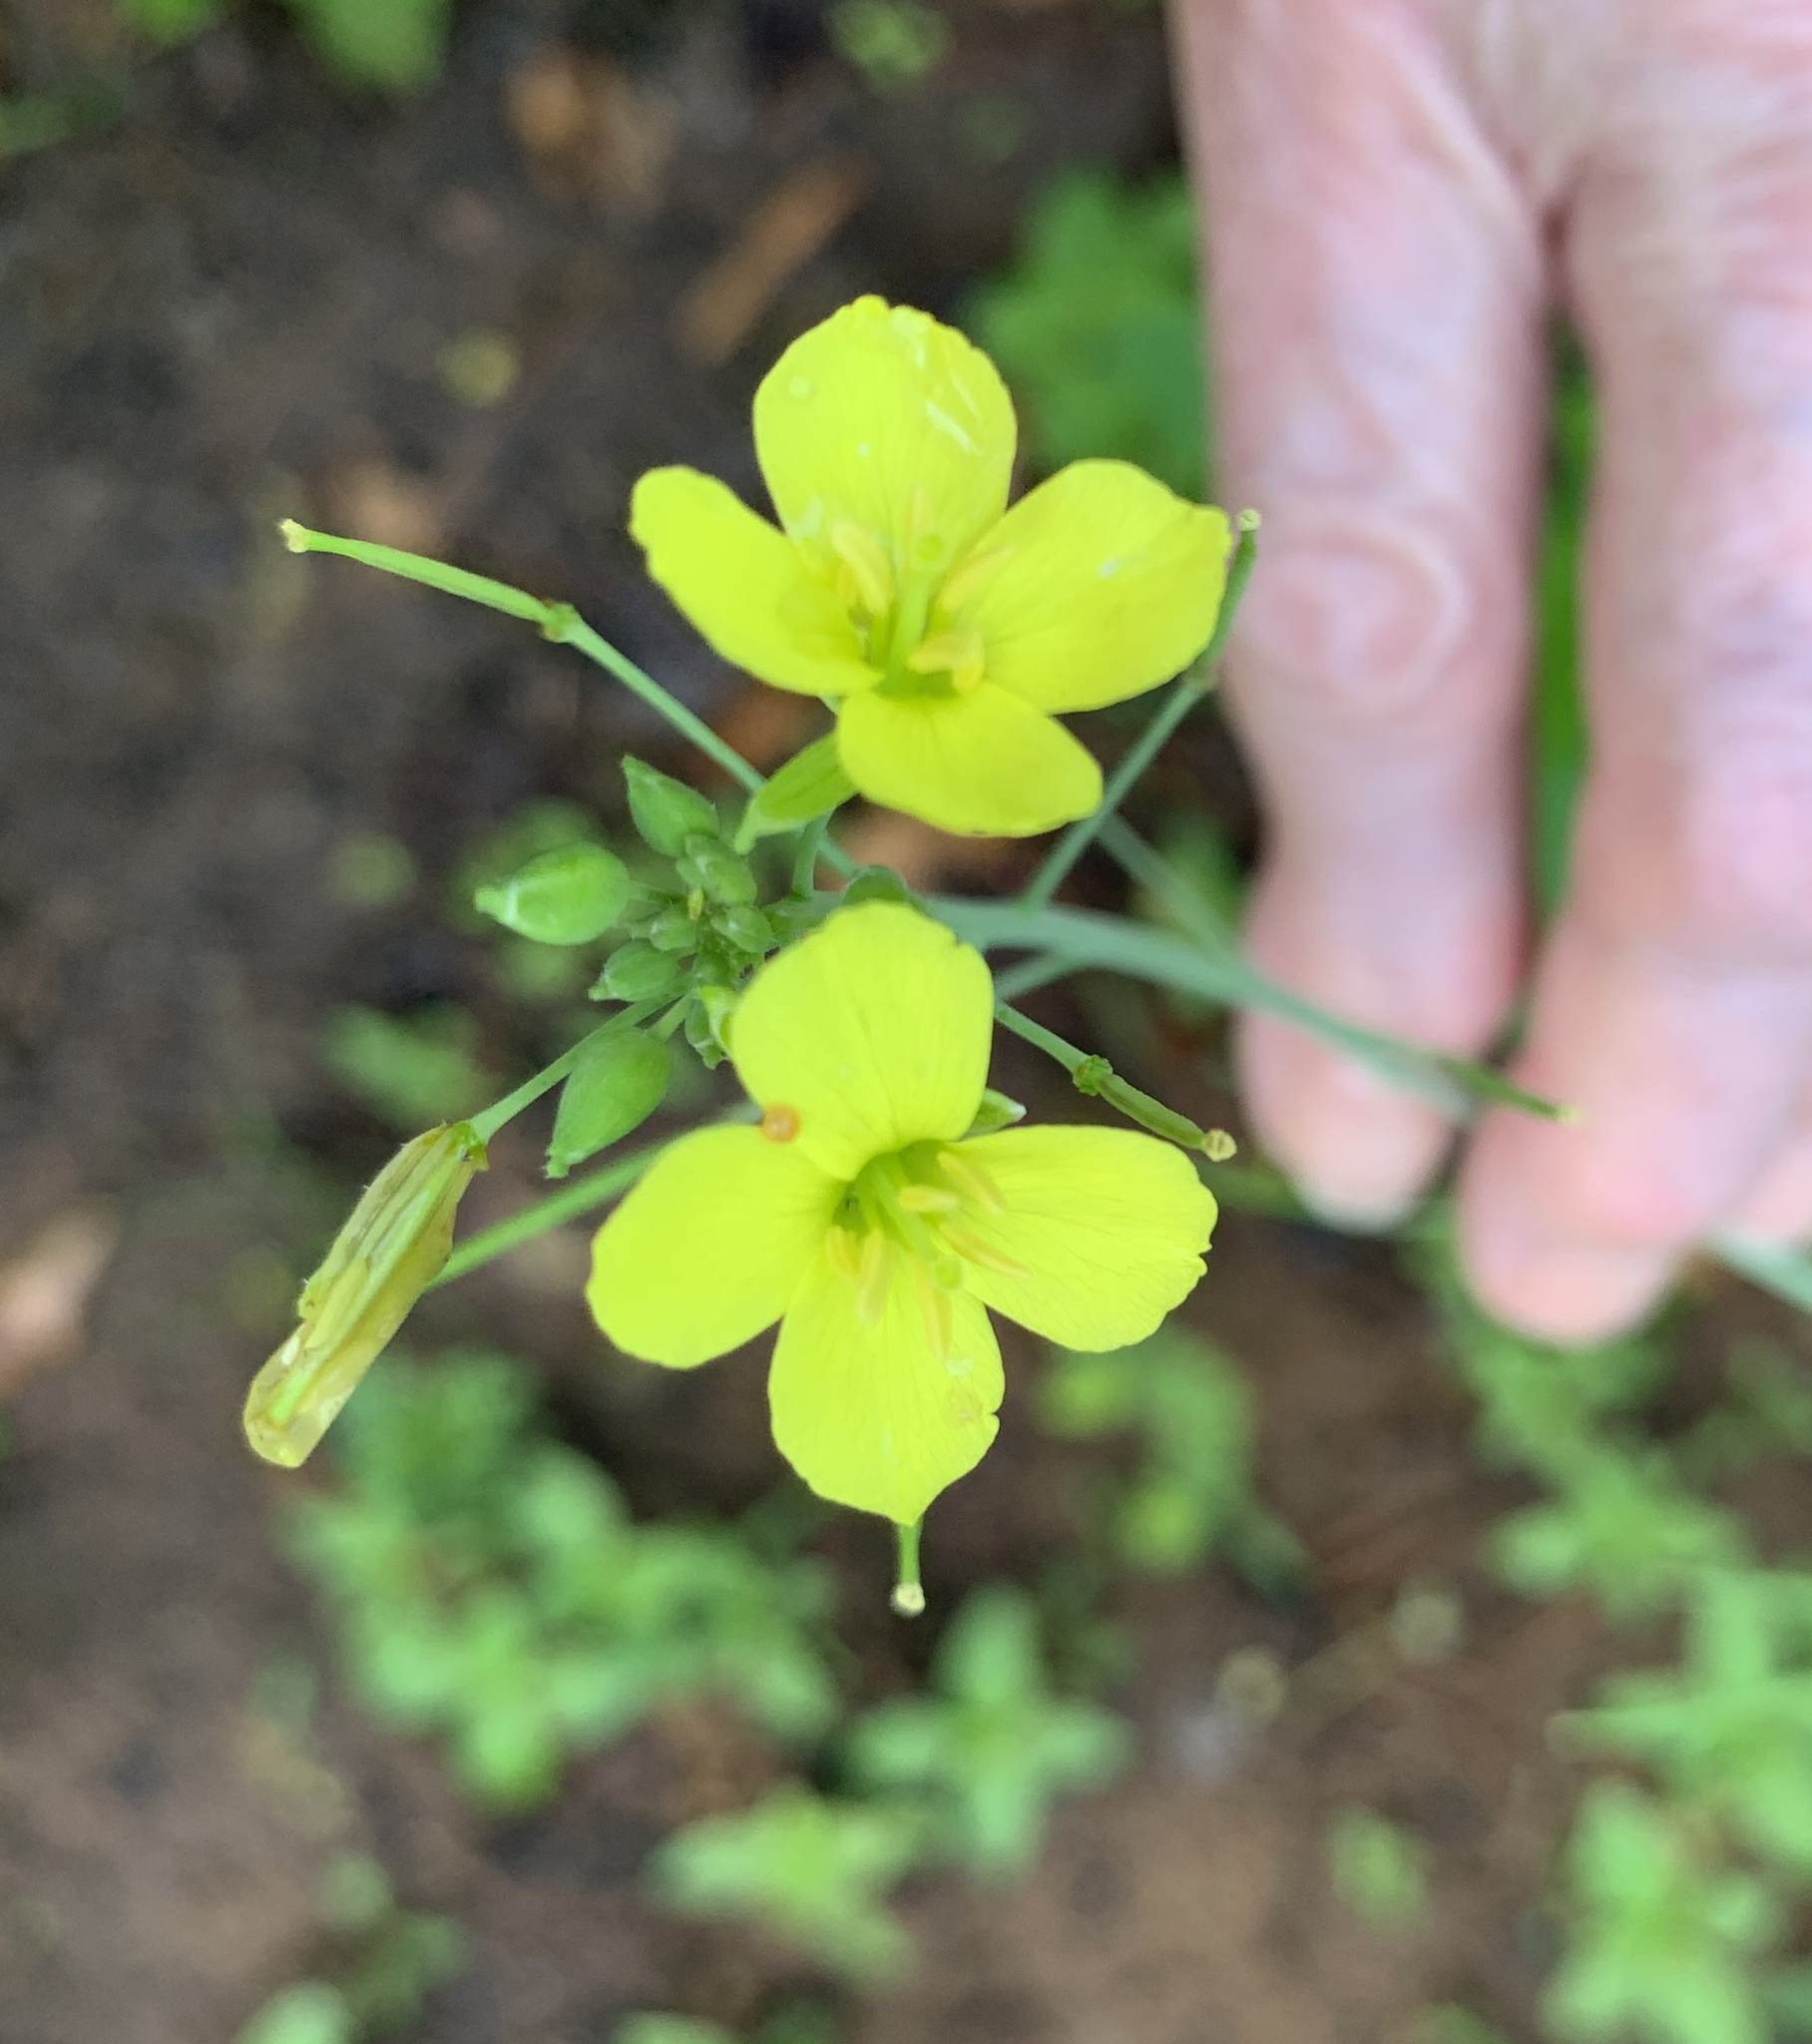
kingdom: Plantae
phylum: Tracheophyta
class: Magnoliopsida
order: Brassicales
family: Brassicaceae
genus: Diplotaxis
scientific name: Diplotaxis muralis
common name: Annual wall-rocket
